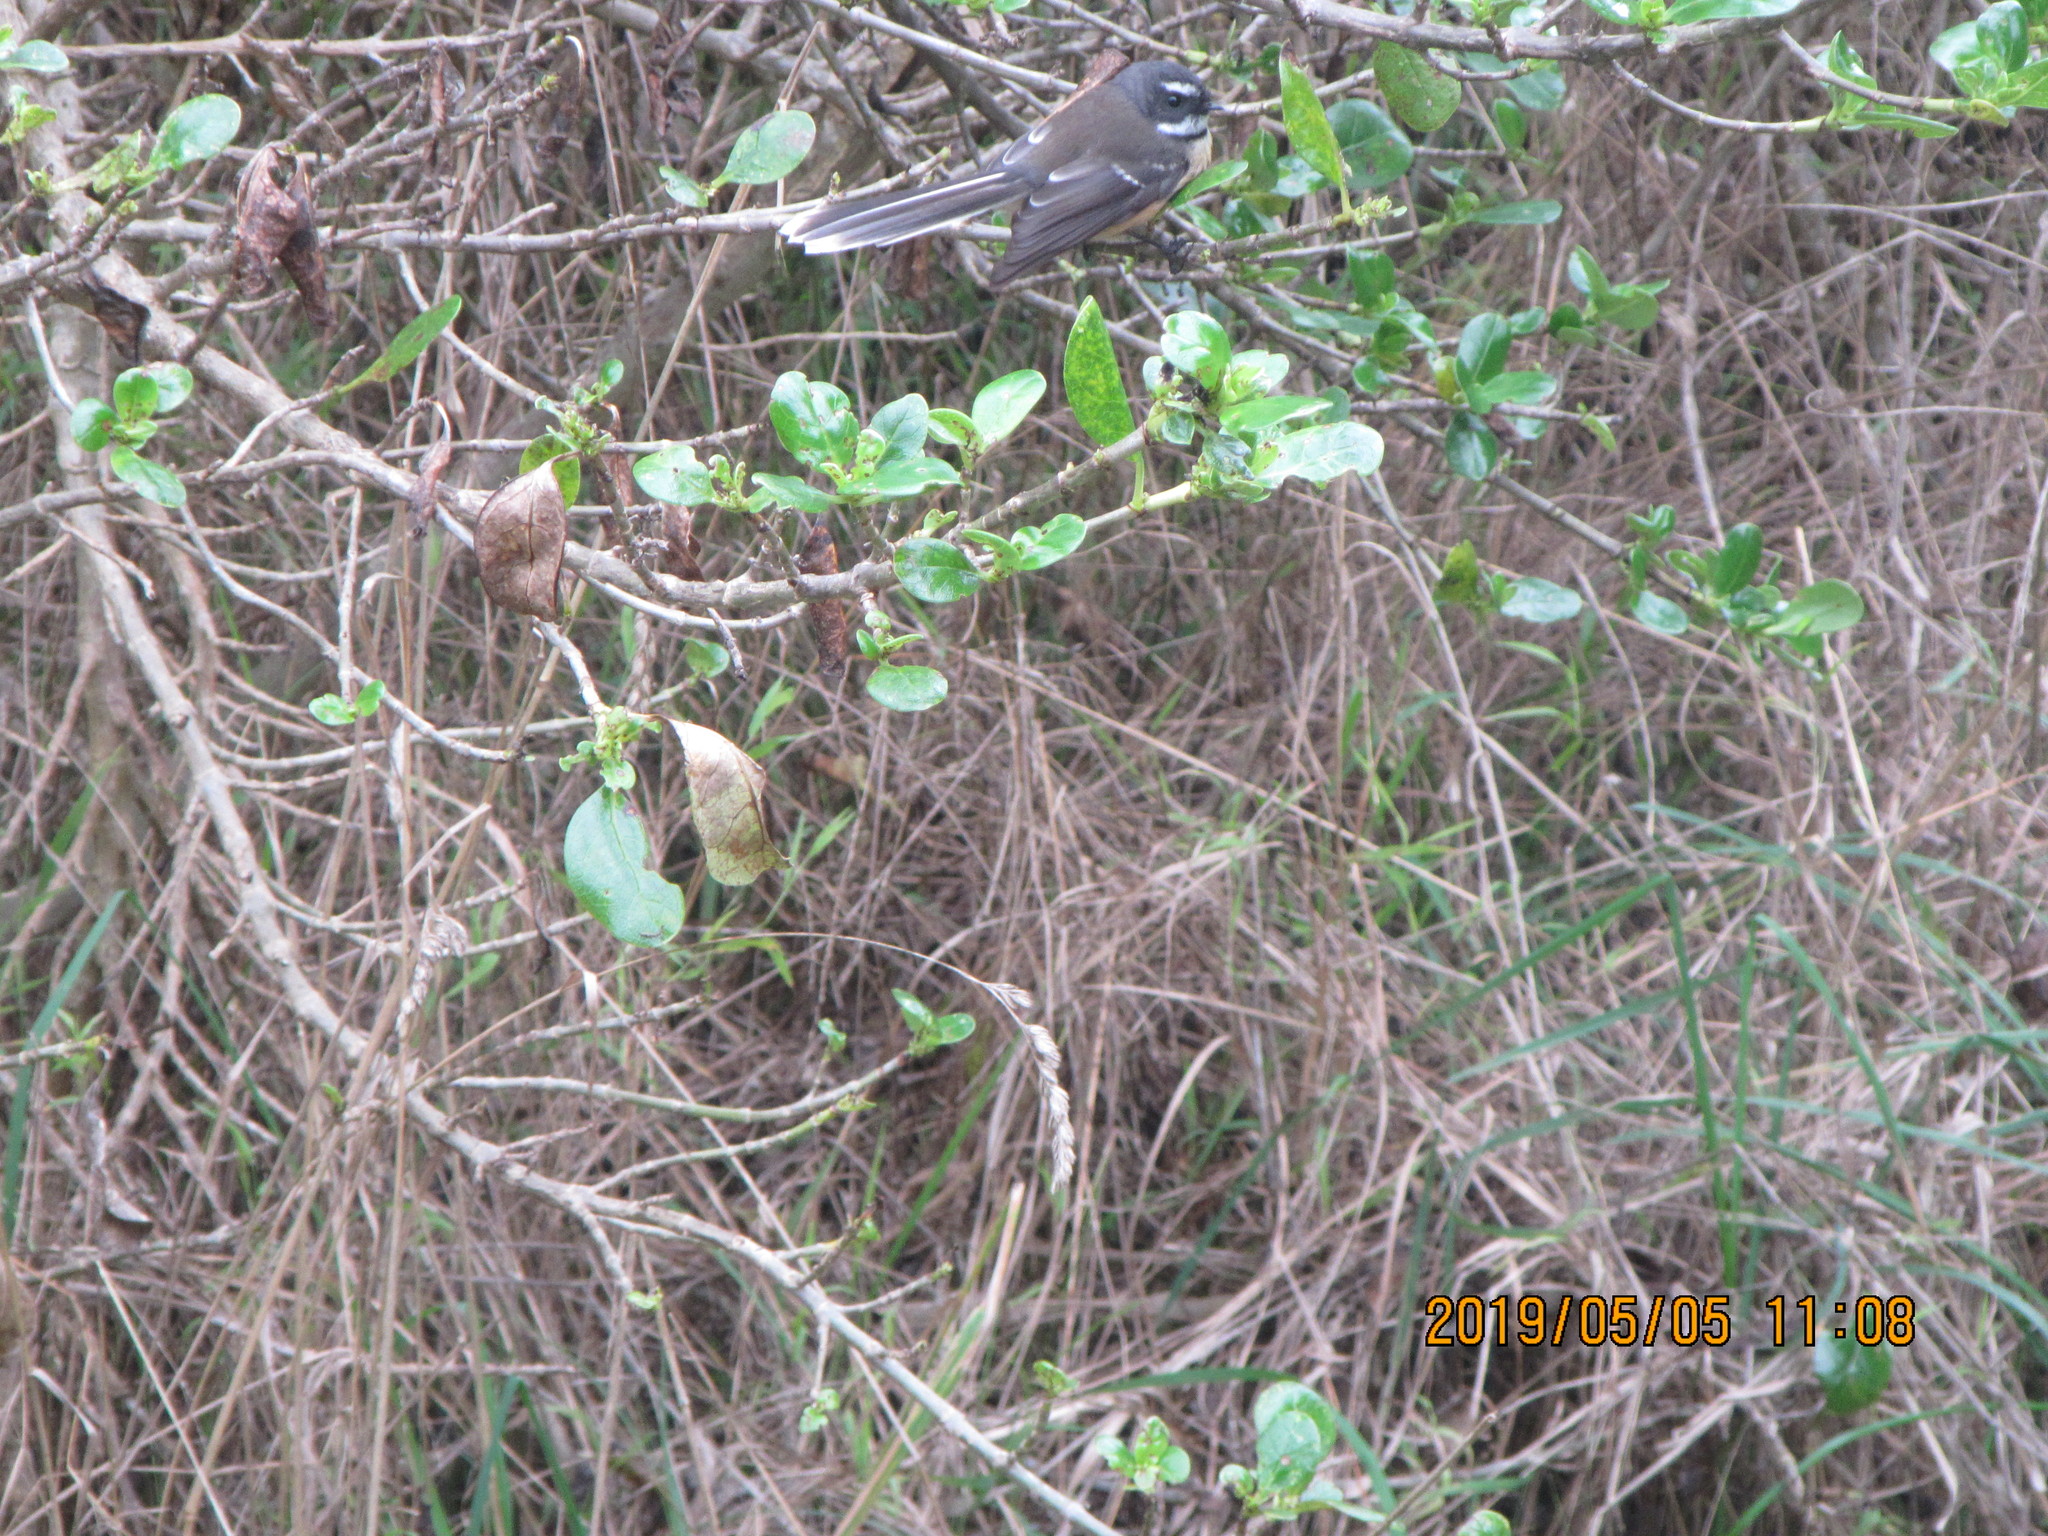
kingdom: Animalia
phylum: Chordata
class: Aves
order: Passeriformes
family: Rhipiduridae
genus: Rhipidura
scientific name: Rhipidura fuliginosa
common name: New zealand fantail
